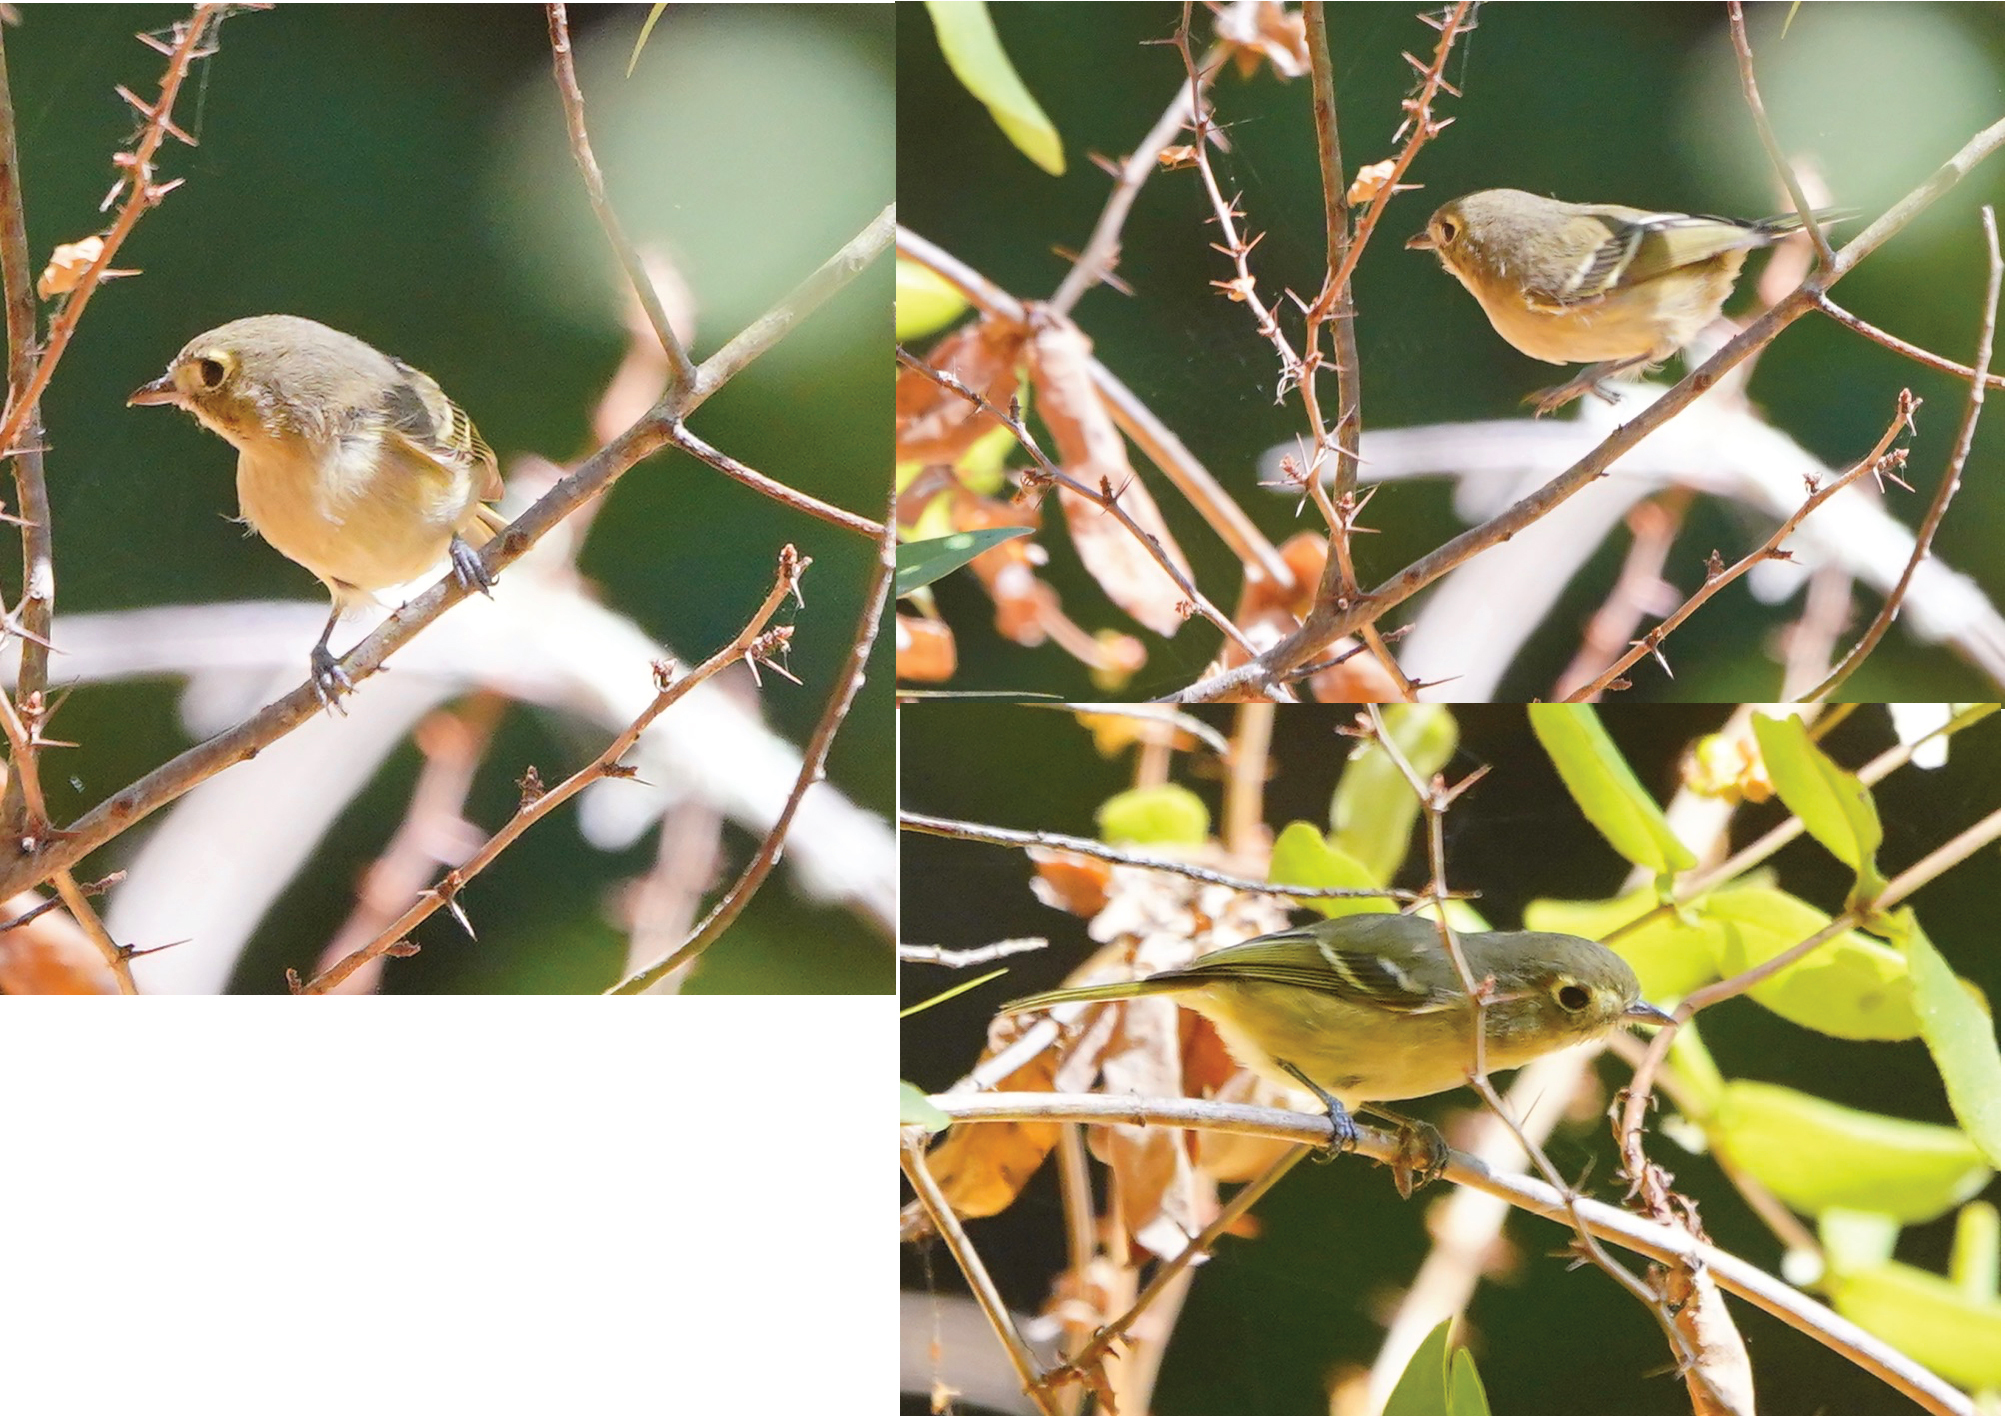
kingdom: Animalia
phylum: Chordata
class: Aves
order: Passeriformes
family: Vireonidae
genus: Vireo
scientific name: Vireo huttoni
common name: Hutton's vireo
